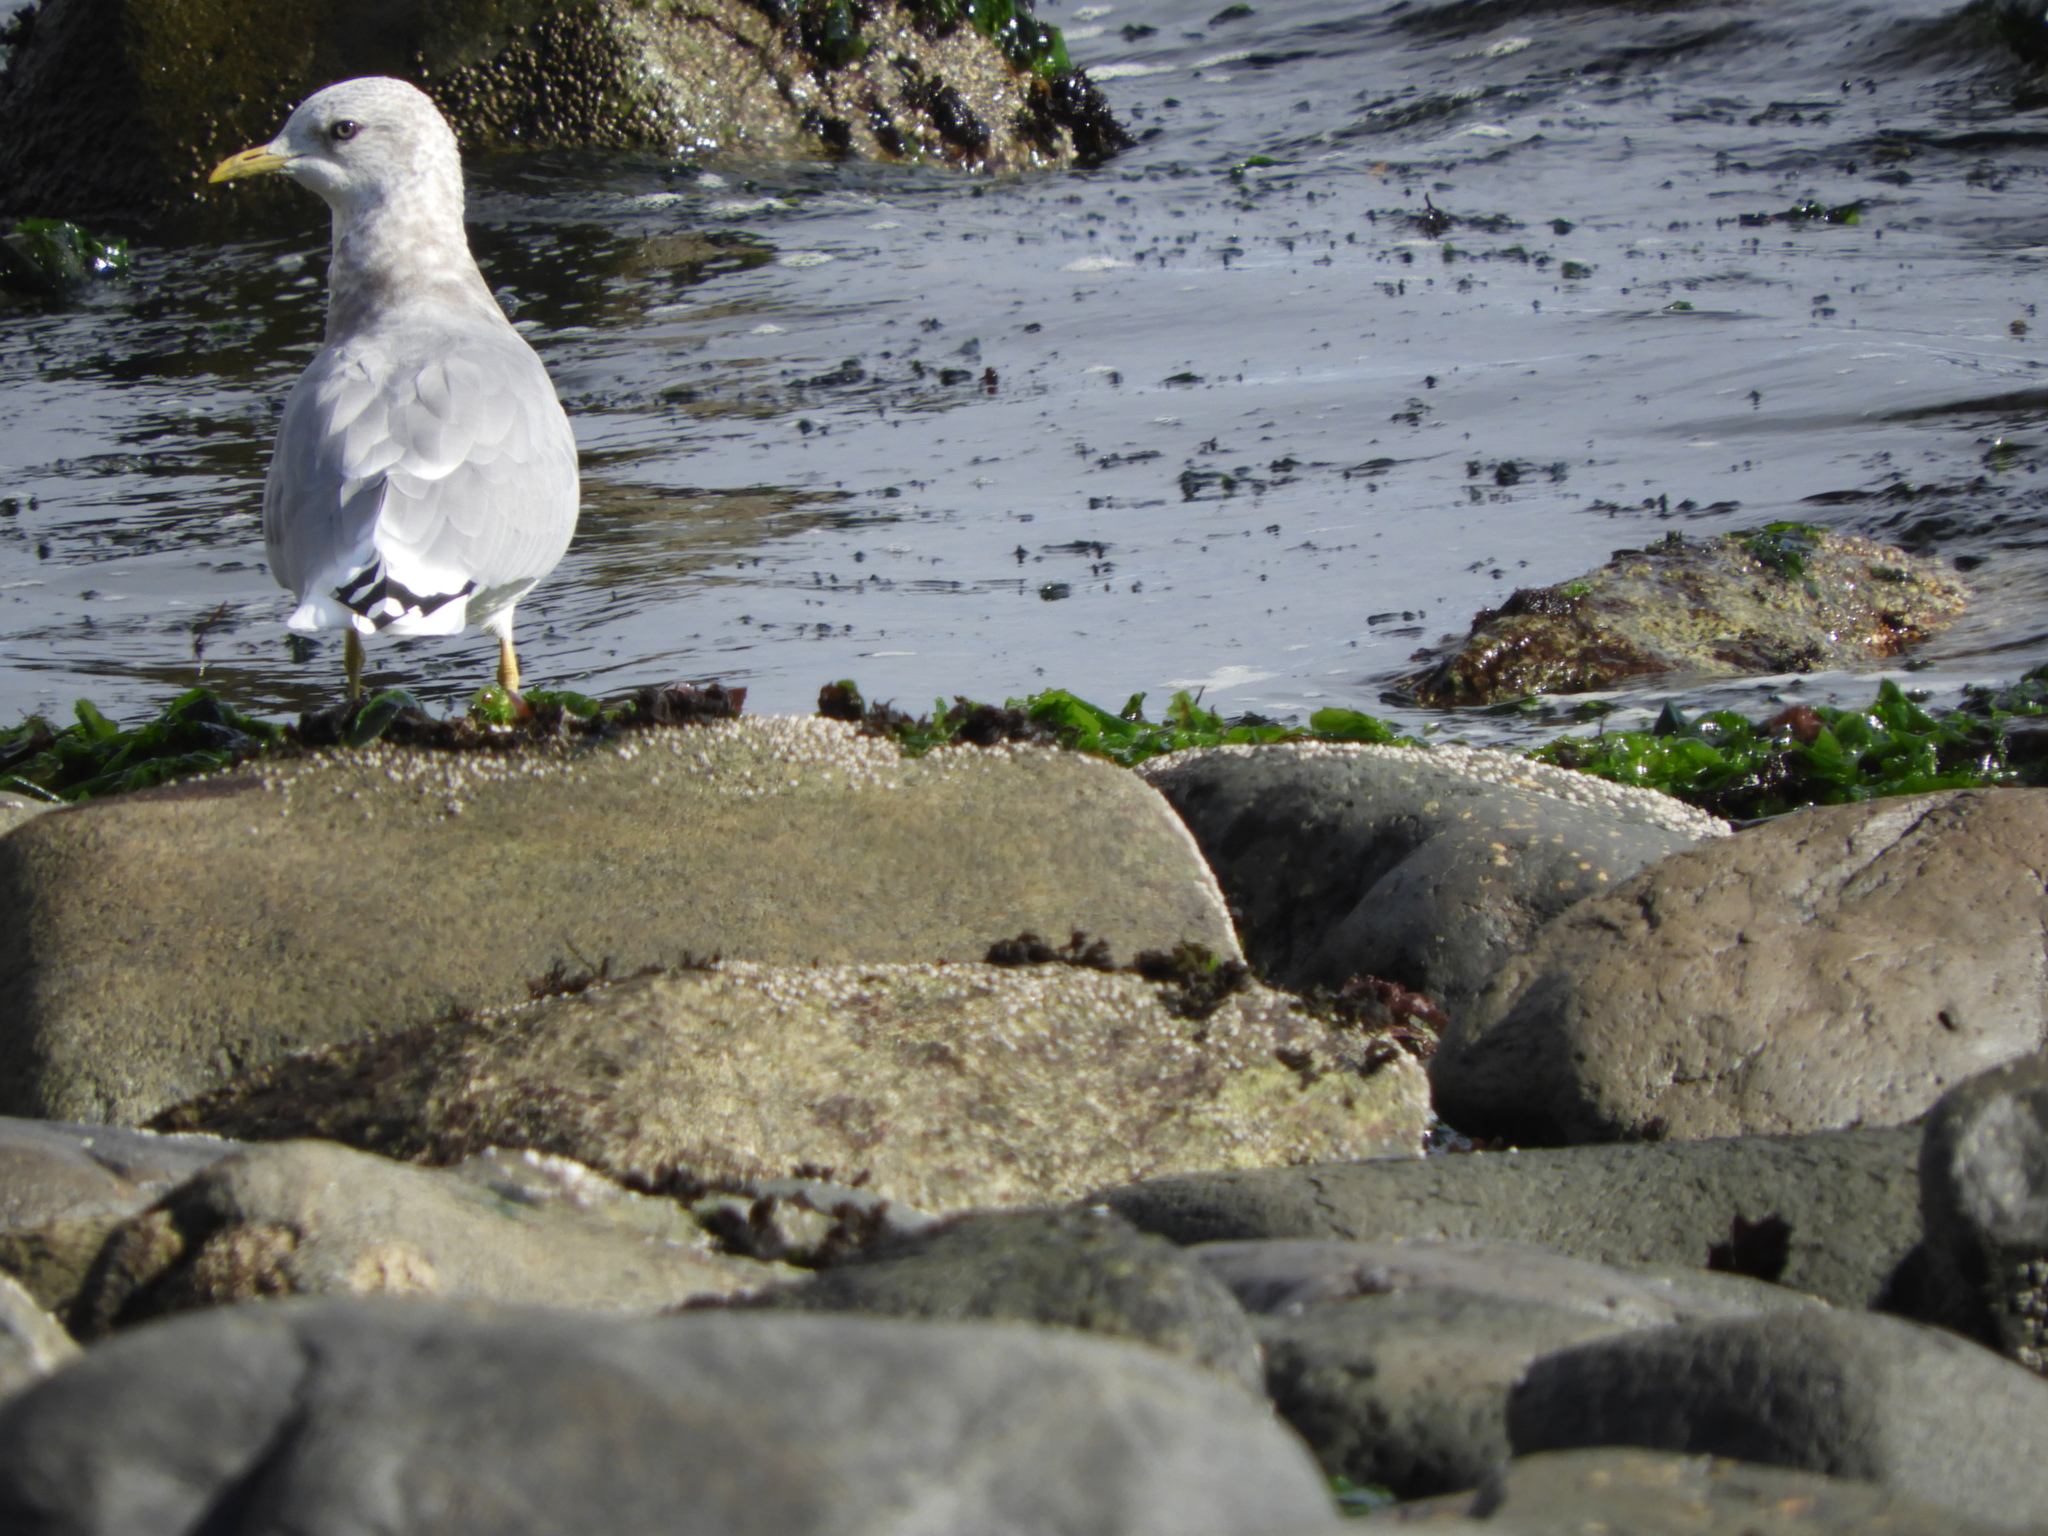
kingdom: Animalia
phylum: Chordata
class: Aves
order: Charadriiformes
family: Laridae
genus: Larus
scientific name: Larus brachyrhynchus
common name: Short-billed gull
